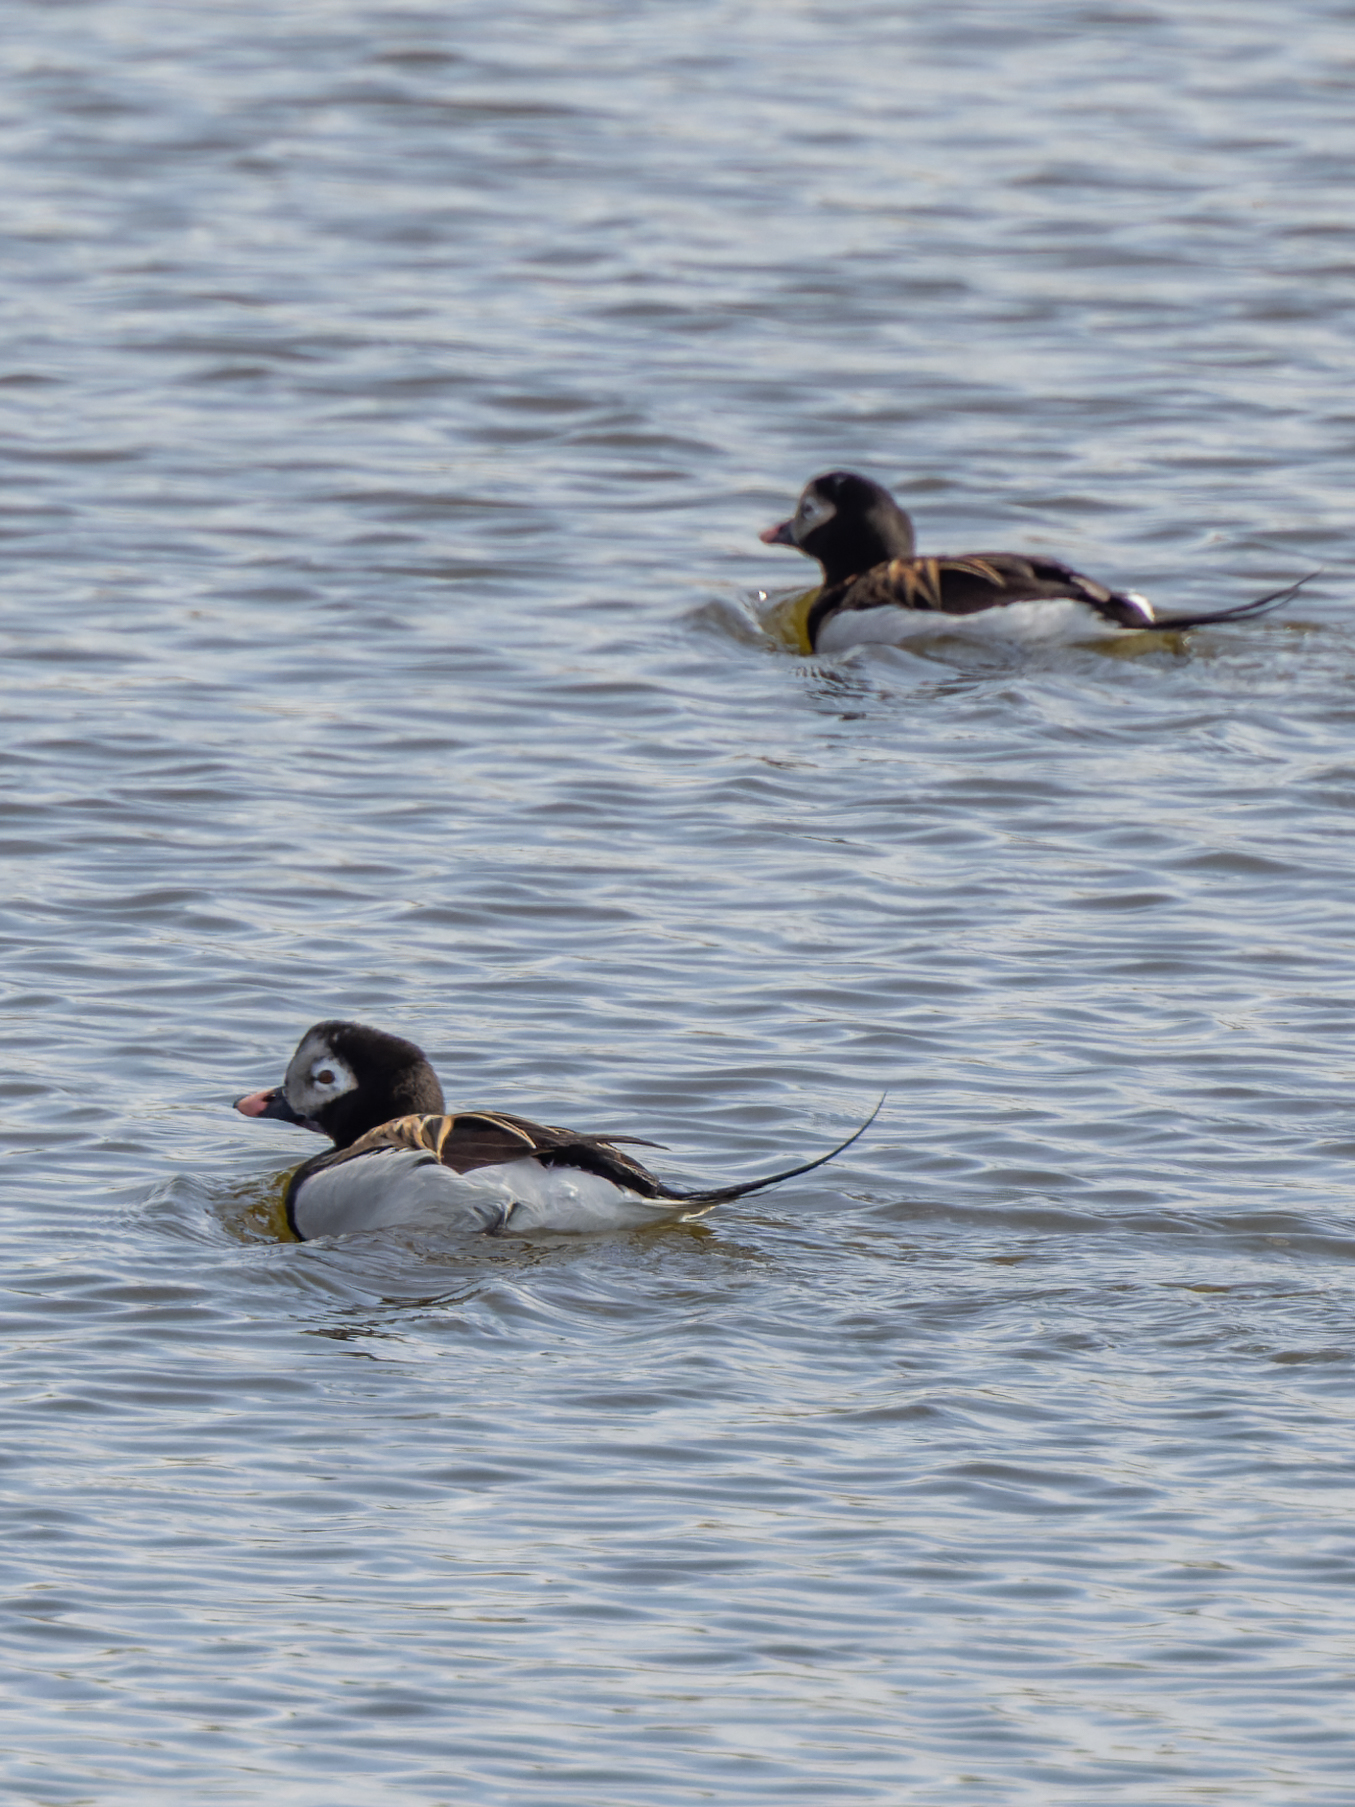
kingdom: Animalia
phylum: Chordata
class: Aves
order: Anseriformes
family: Anatidae
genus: Clangula
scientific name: Clangula hyemalis
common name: Long-tailed duck
